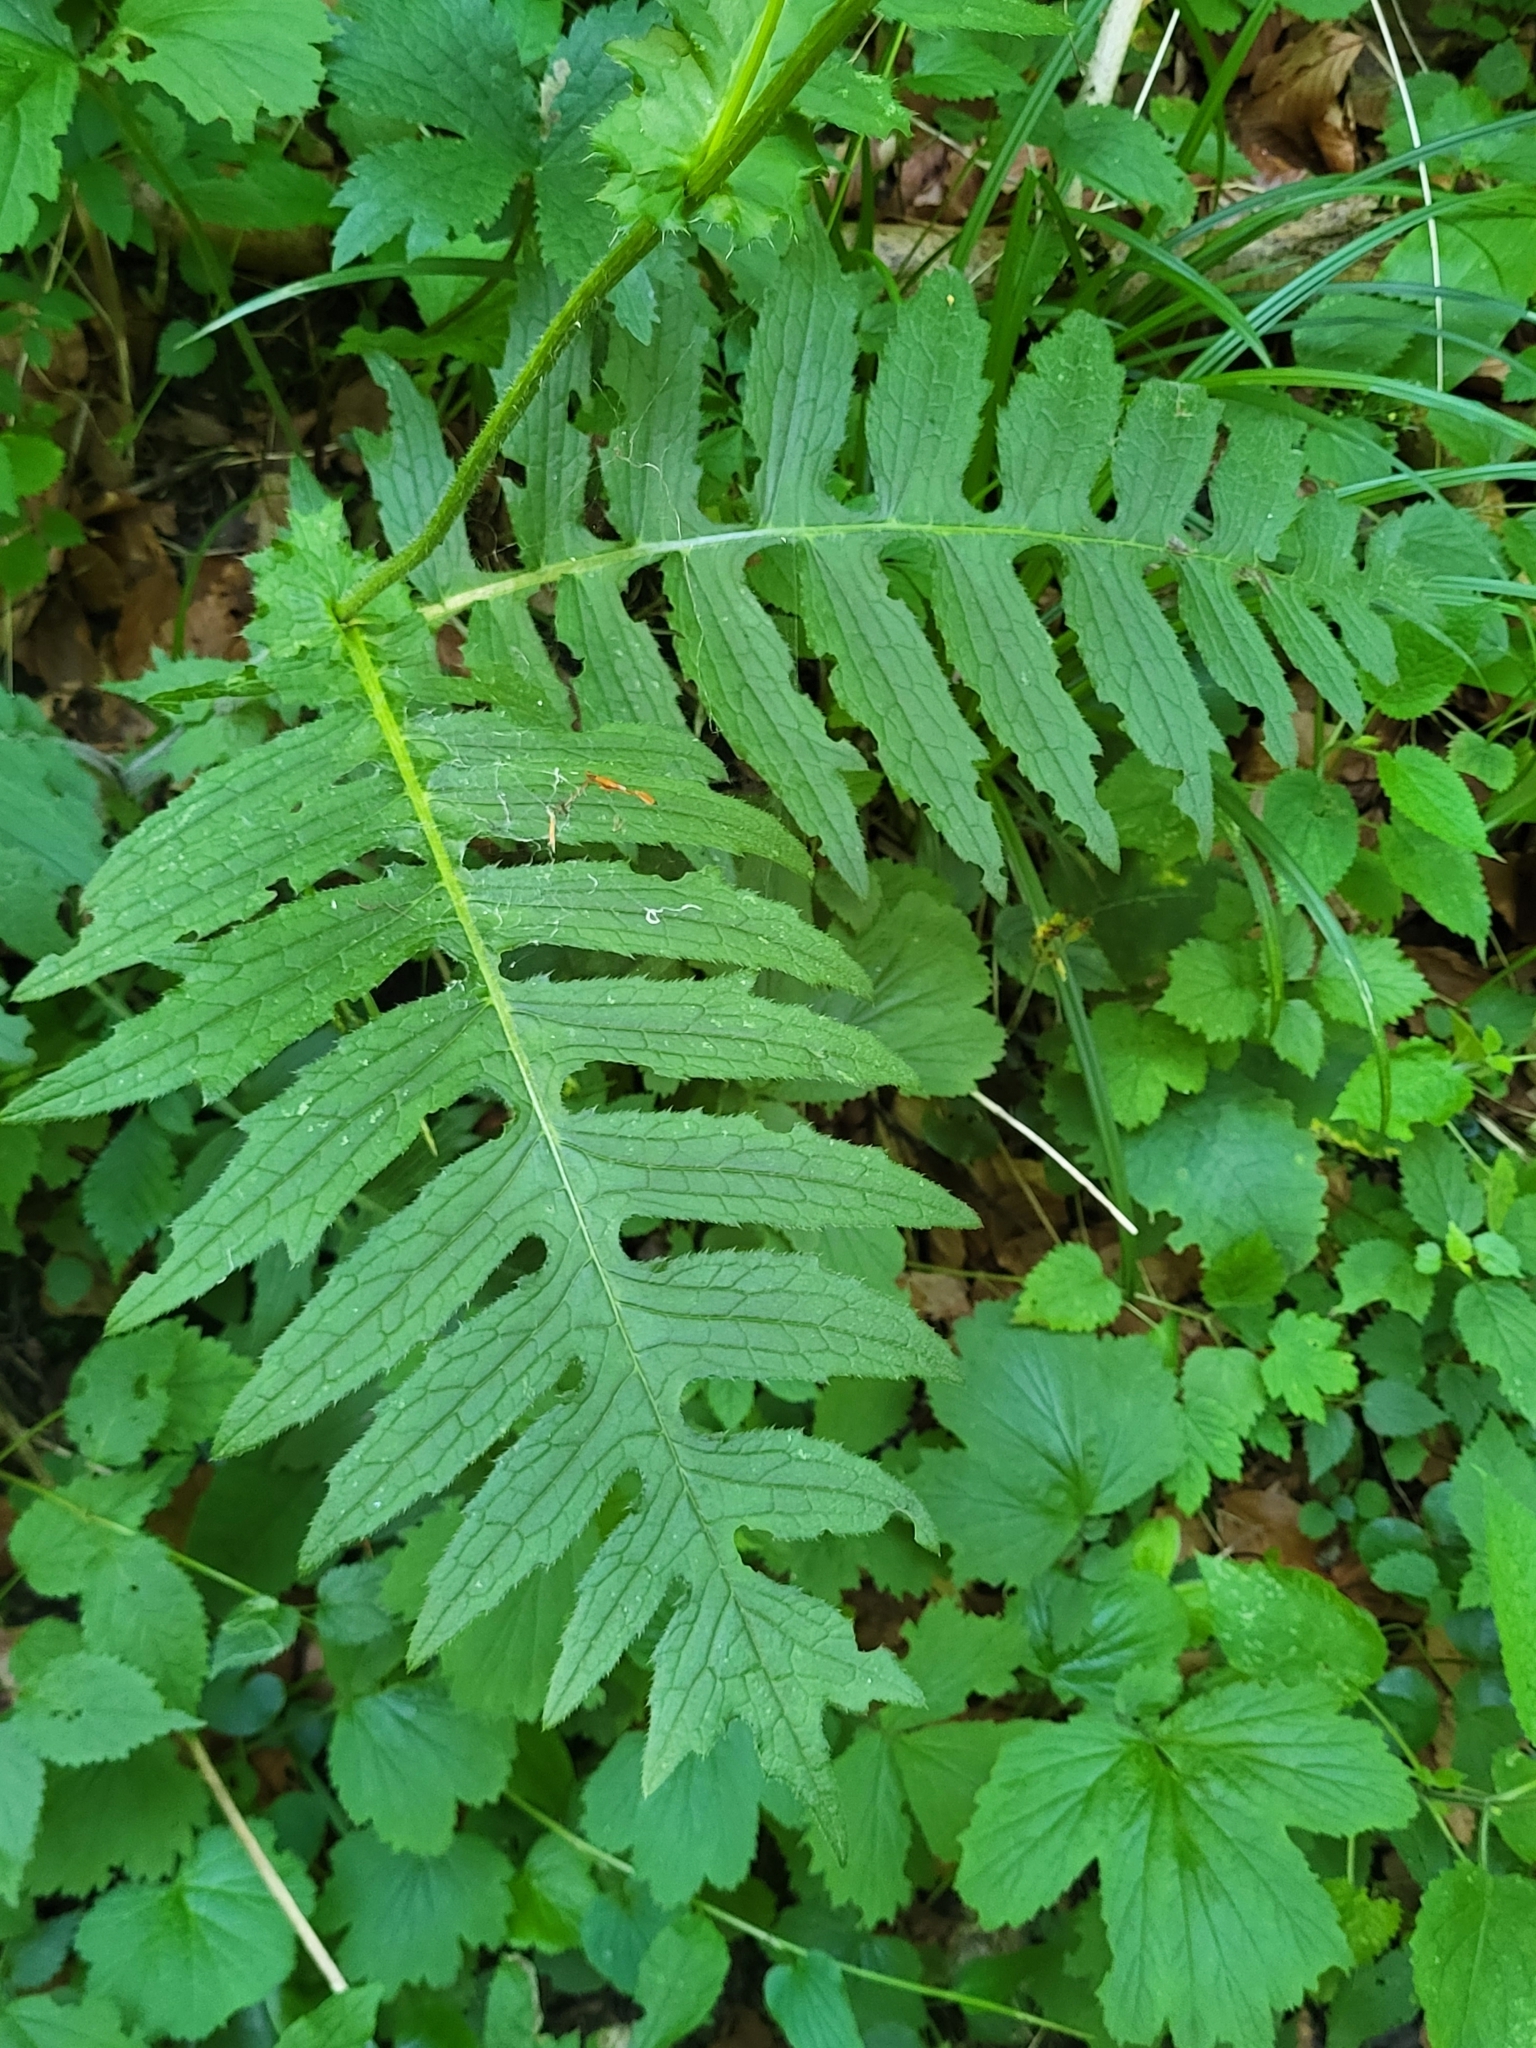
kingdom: Plantae
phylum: Tracheophyta
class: Magnoliopsida
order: Asterales
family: Asteraceae
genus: Cirsium
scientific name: Cirsium erisithales
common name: Yellow thistle
